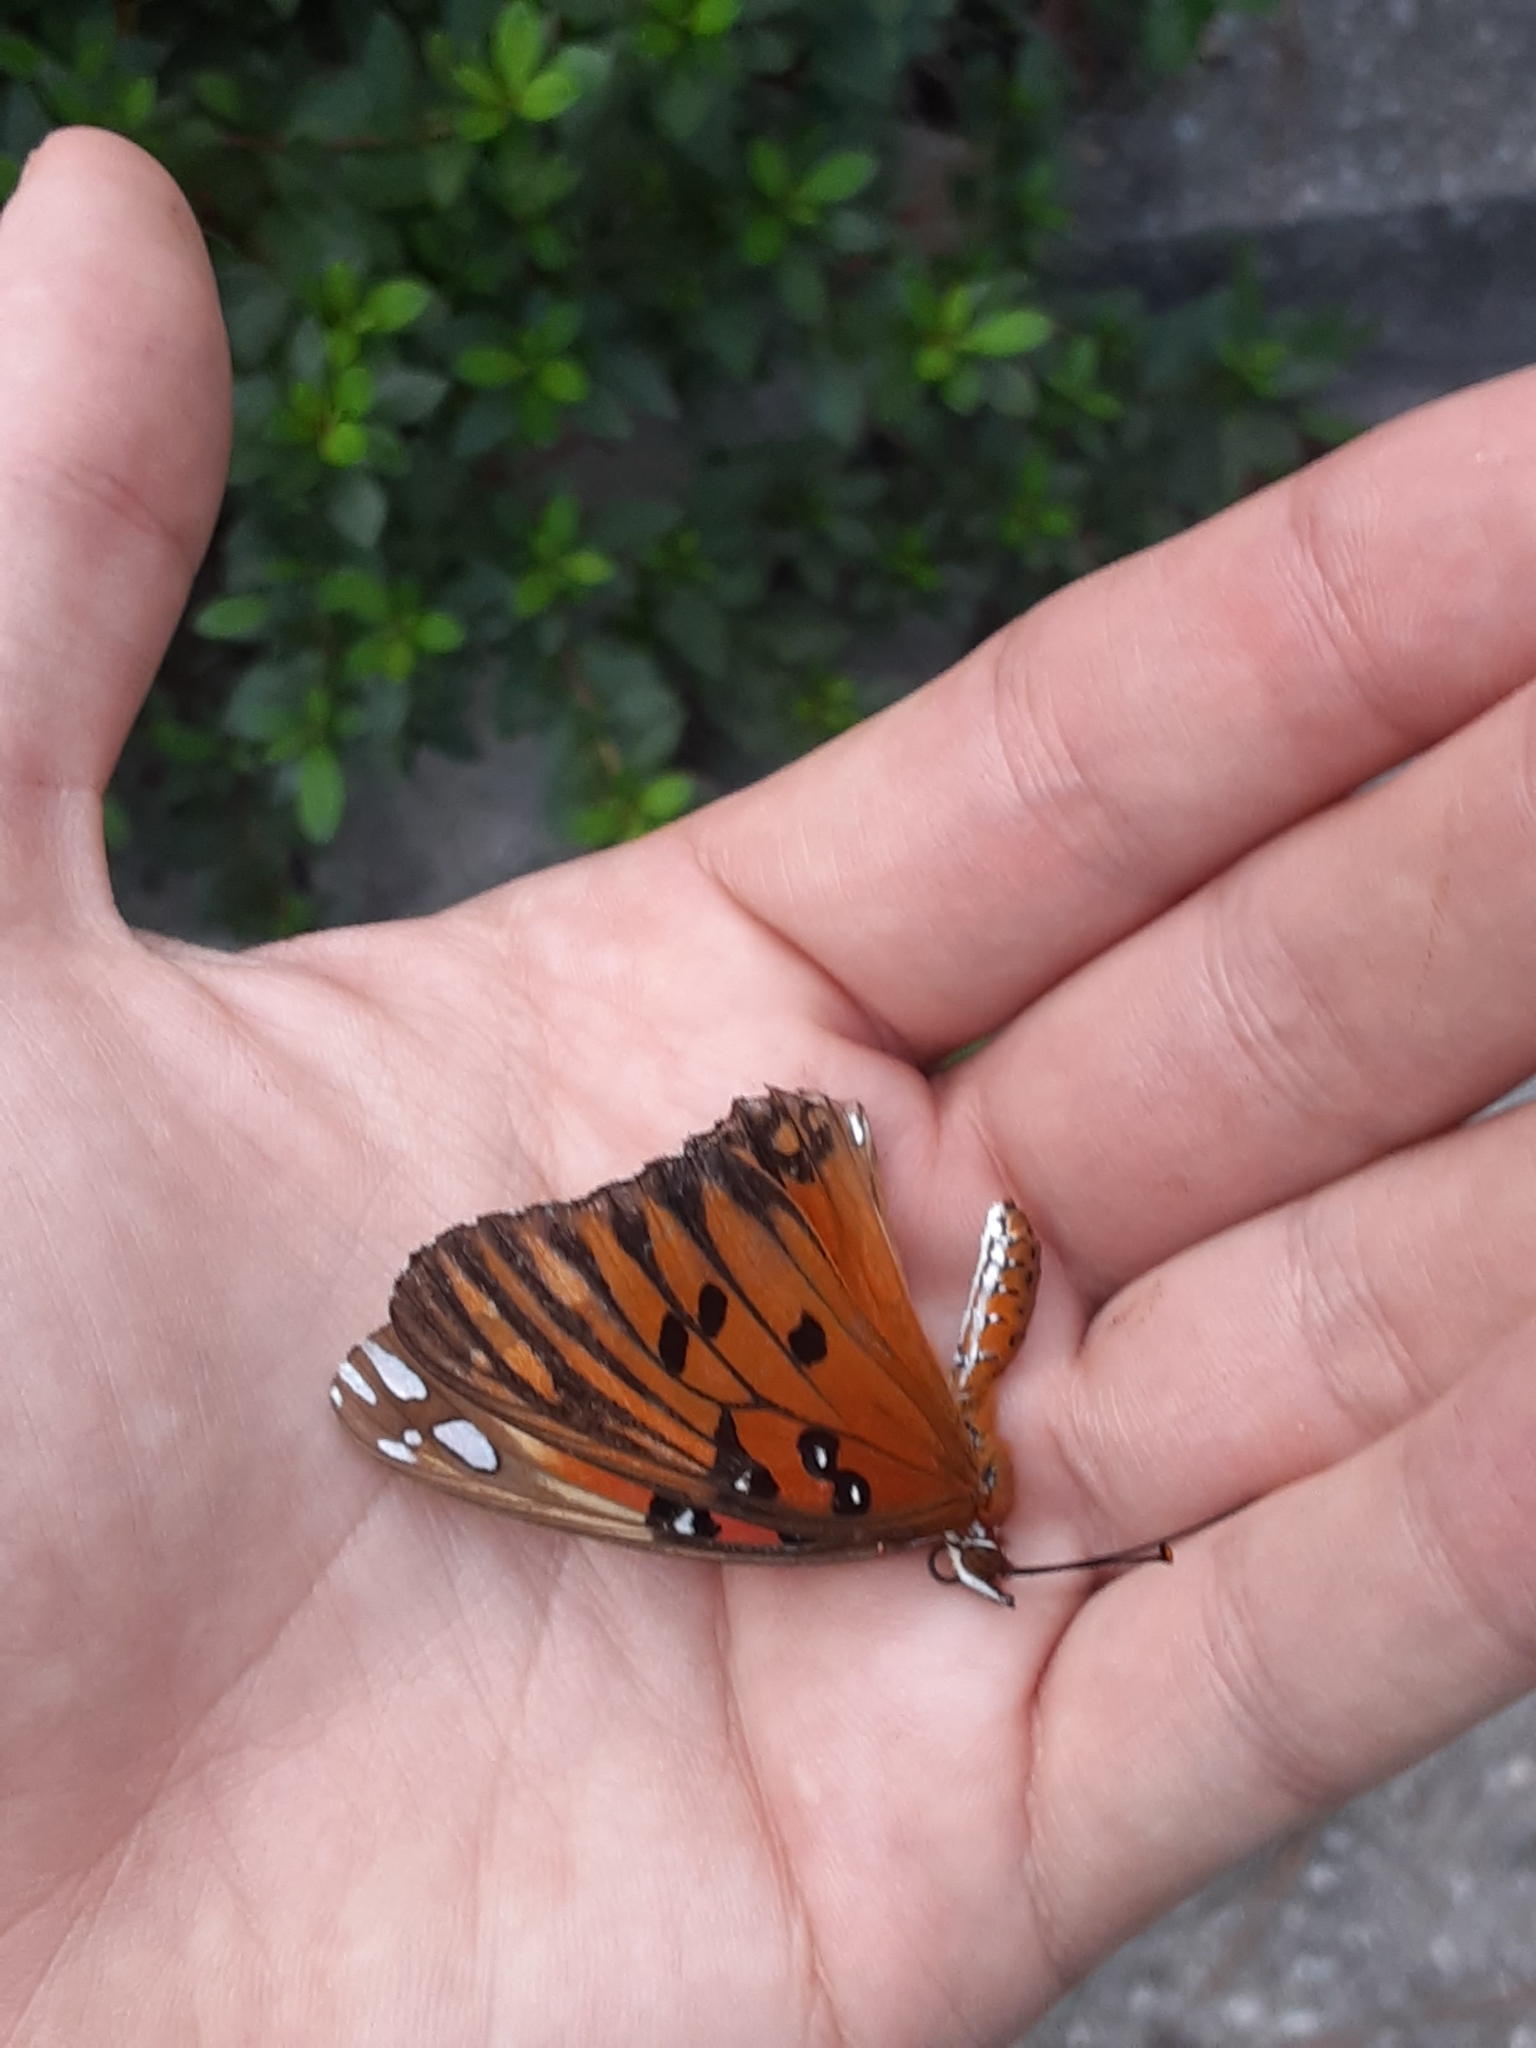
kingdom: Animalia
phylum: Arthropoda
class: Insecta
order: Lepidoptera
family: Nymphalidae
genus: Dione
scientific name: Dione vanillae
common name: Gulf fritillary
